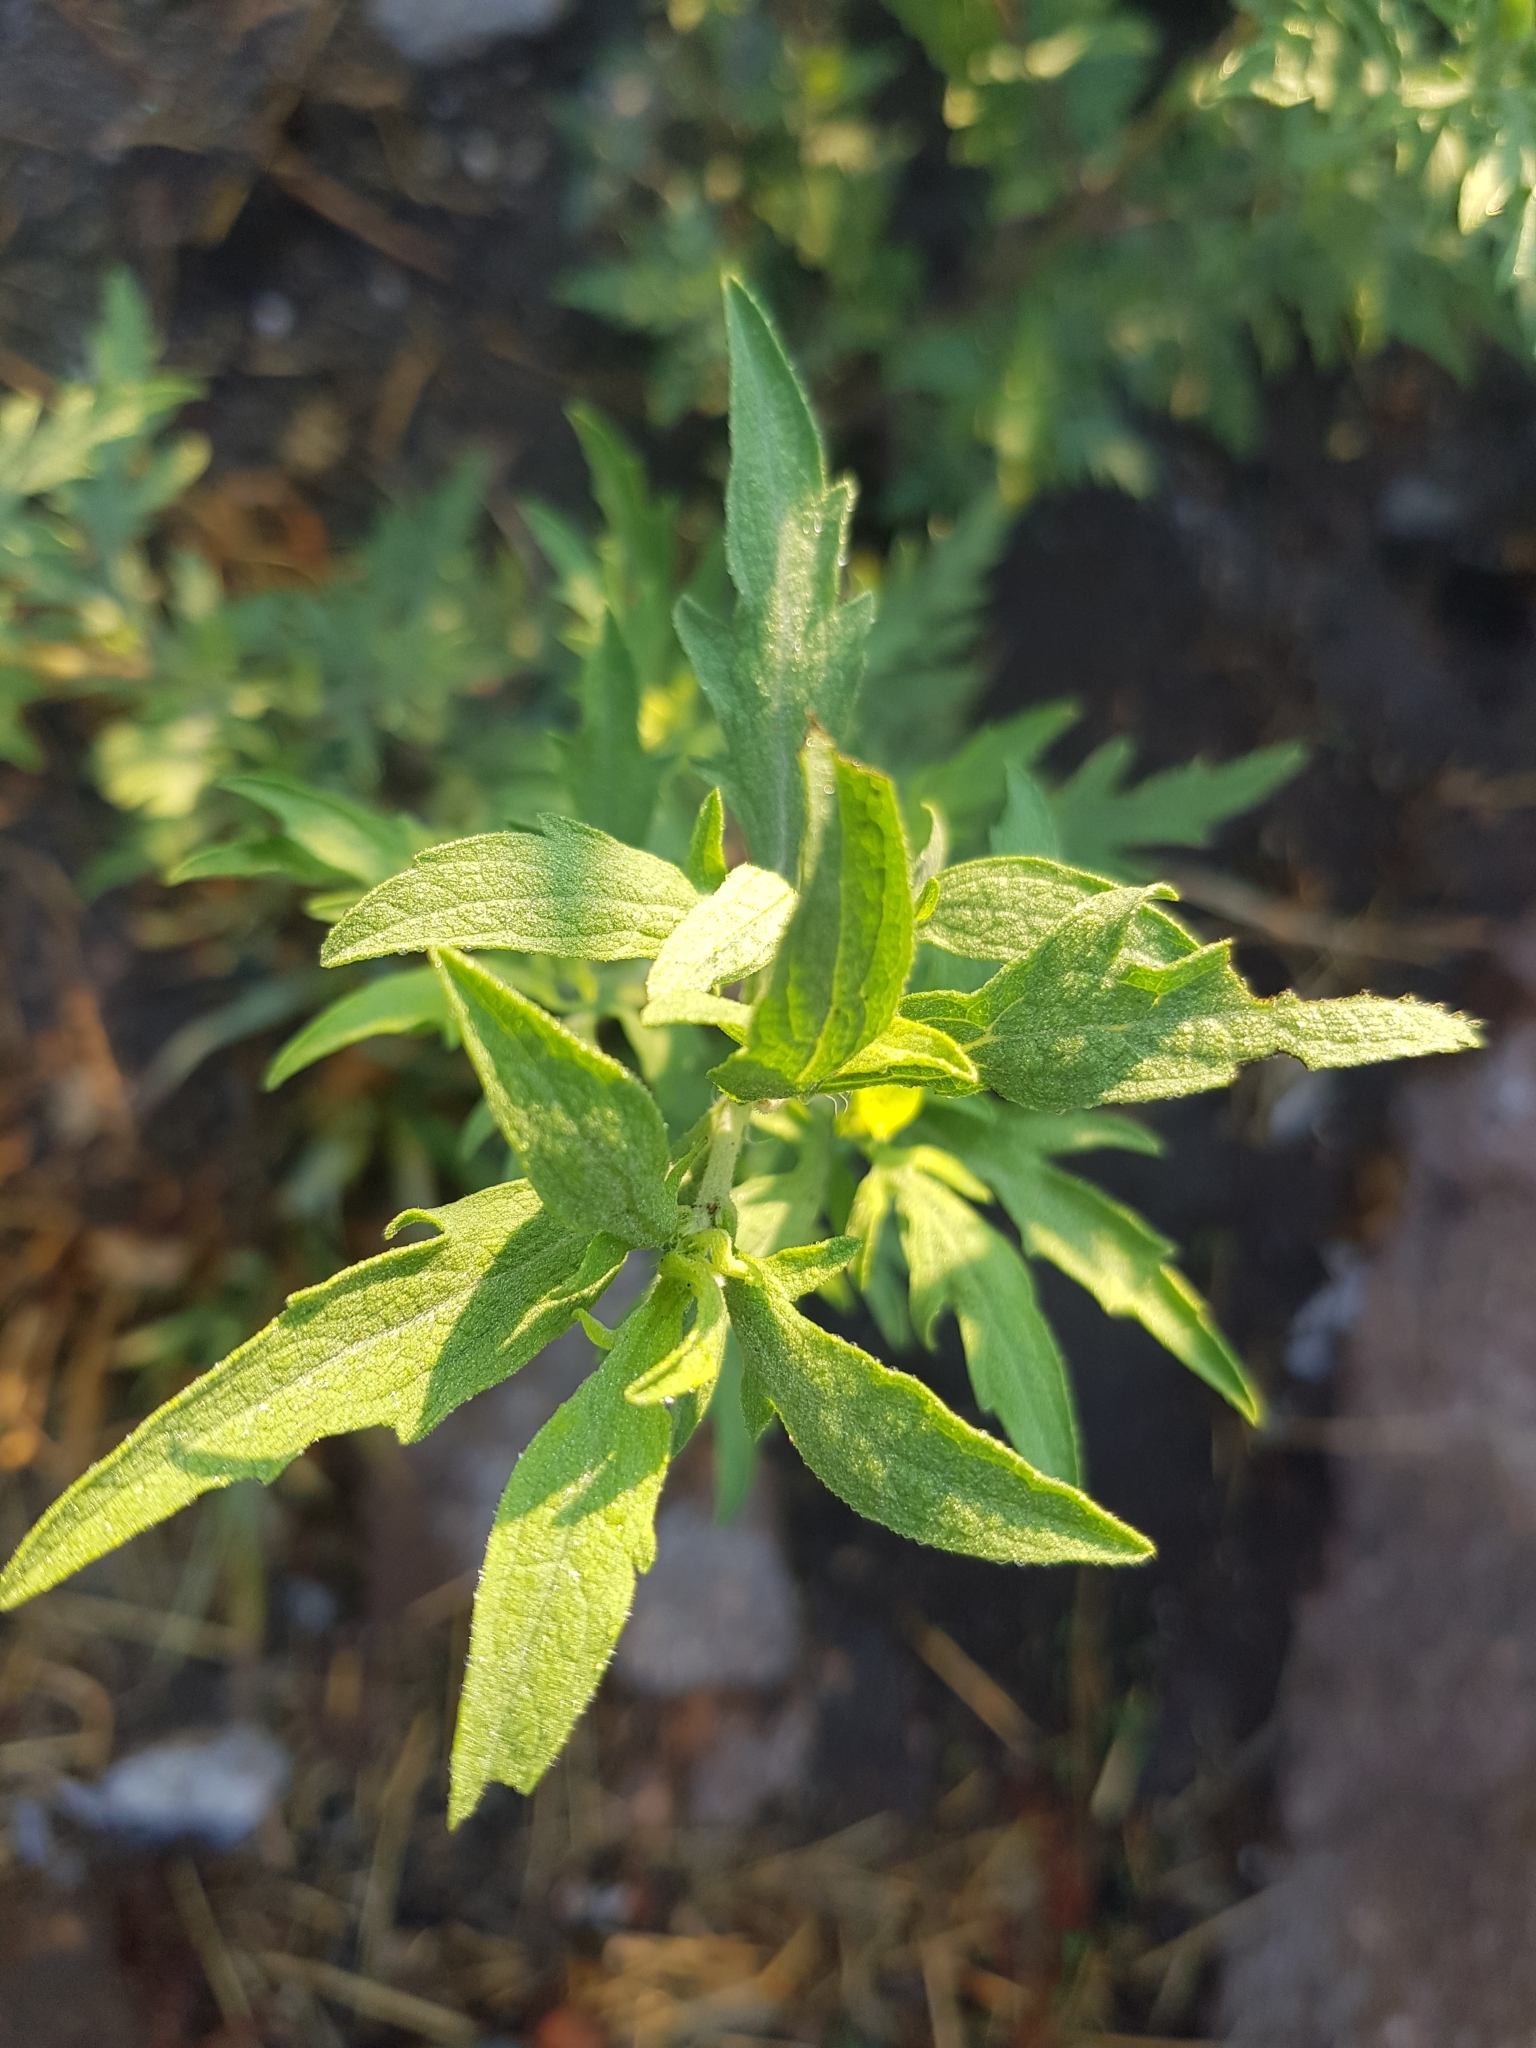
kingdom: Plantae
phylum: Tracheophyta
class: Magnoliopsida
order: Asterales
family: Asteraceae
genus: Ambrosia
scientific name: Ambrosia confertiflora
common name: Bur ragweed
